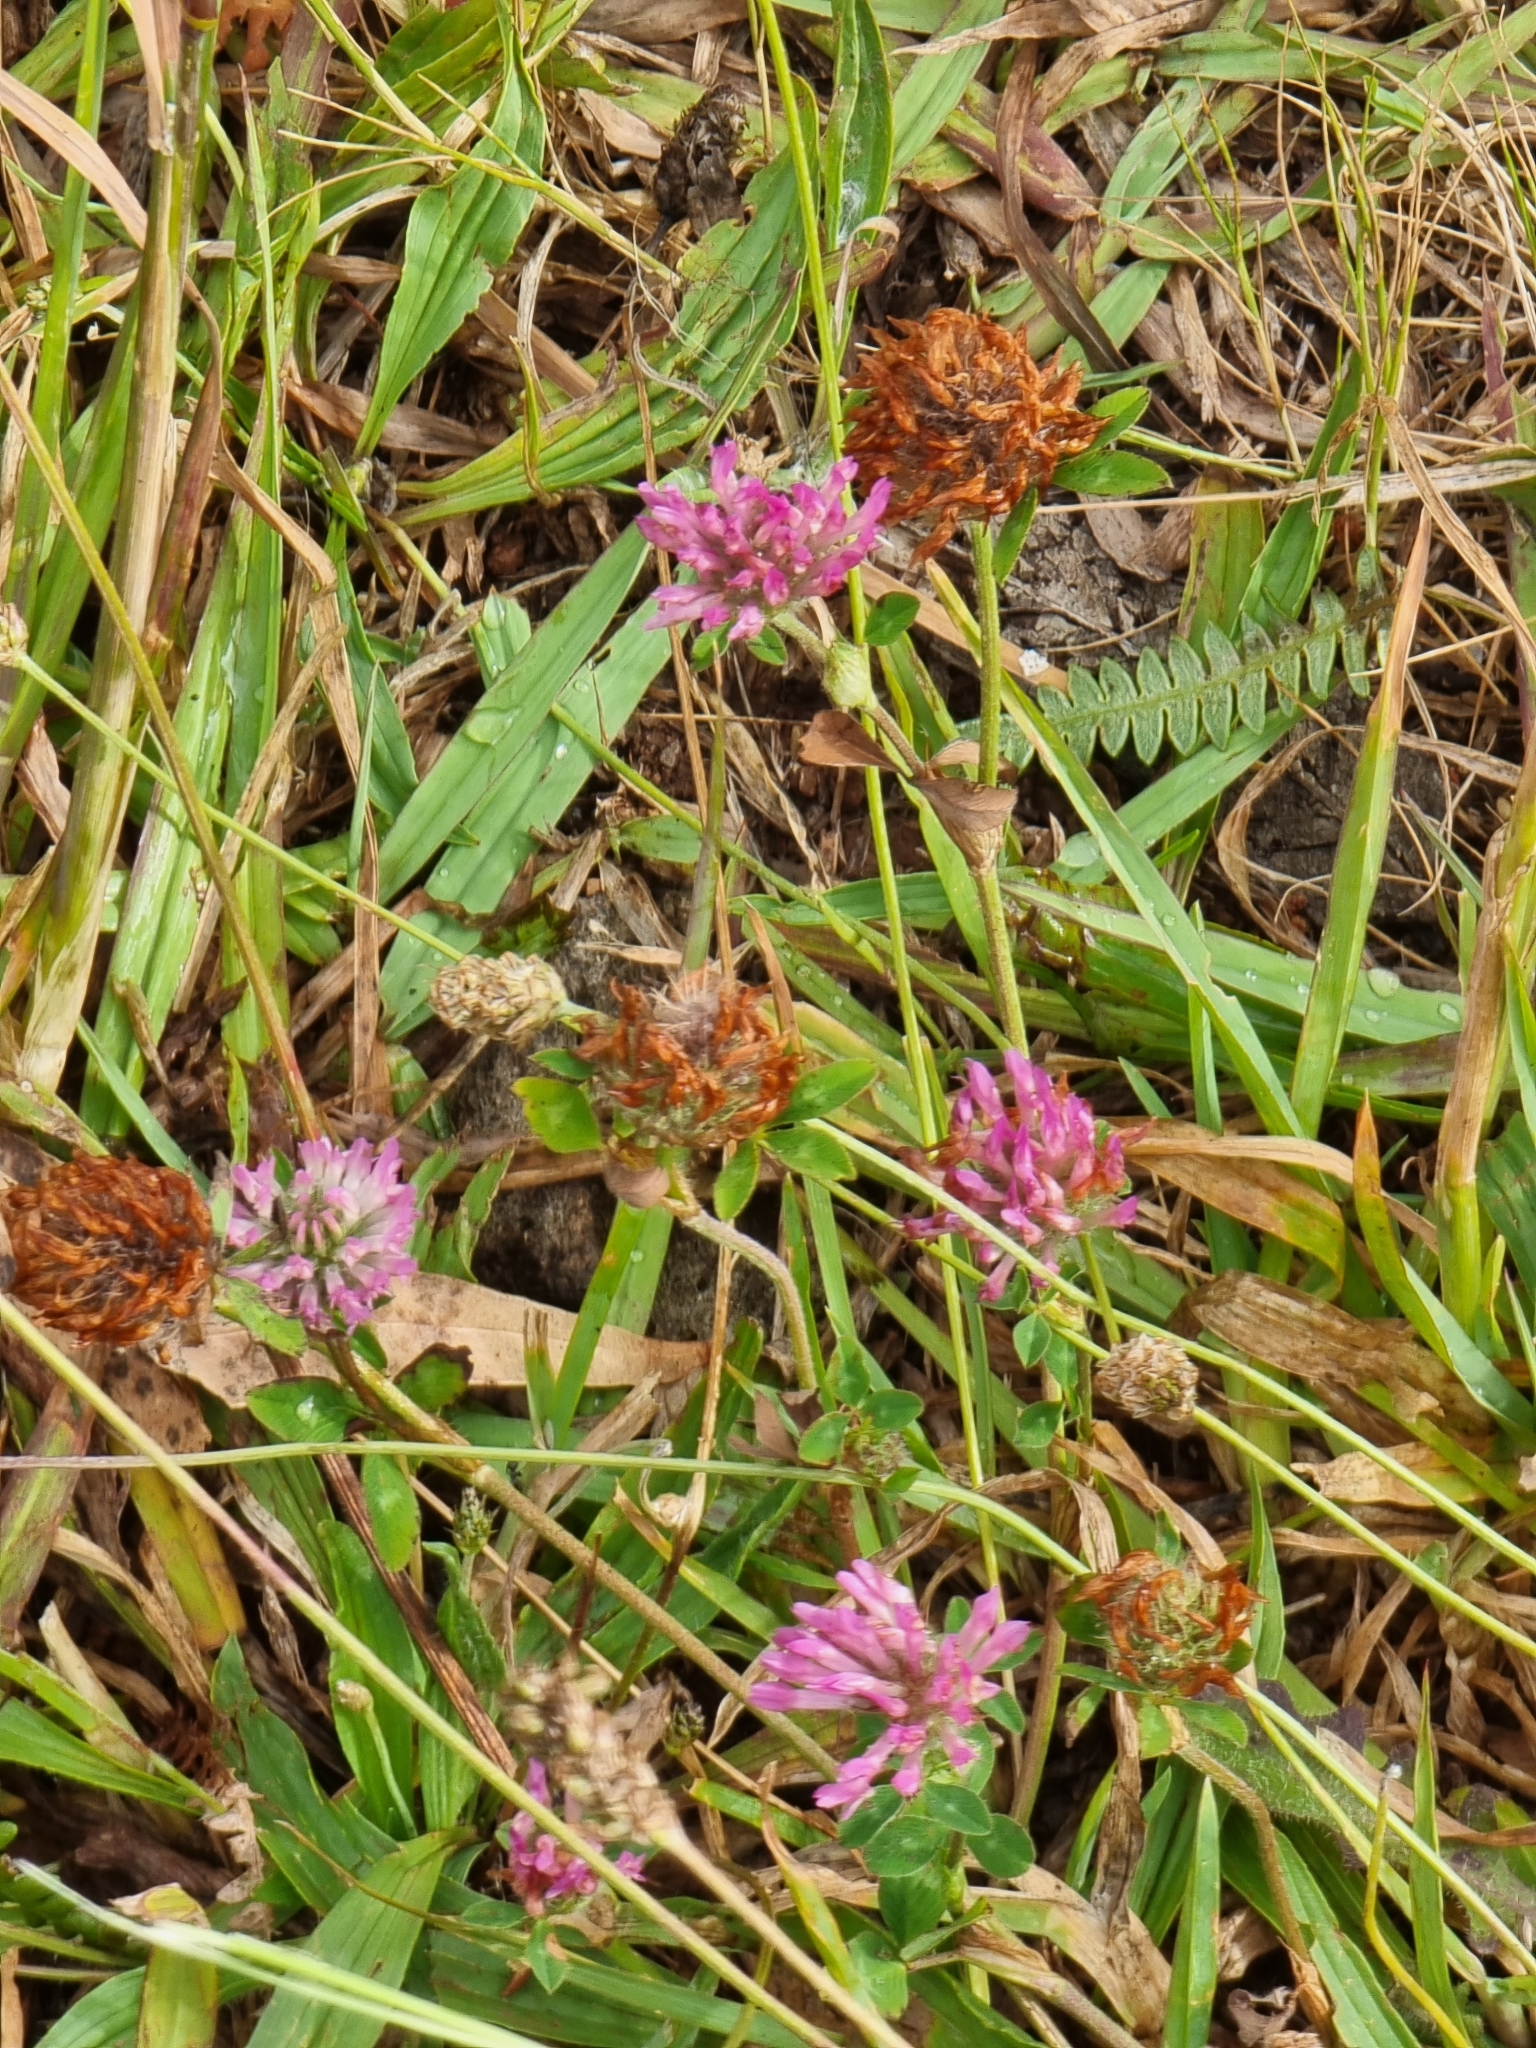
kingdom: Plantae
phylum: Tracheophyta
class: Magnoliopsida
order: Fabales
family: Fabaceae
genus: Trifolium
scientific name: Trifolium pratense
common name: Red clover
